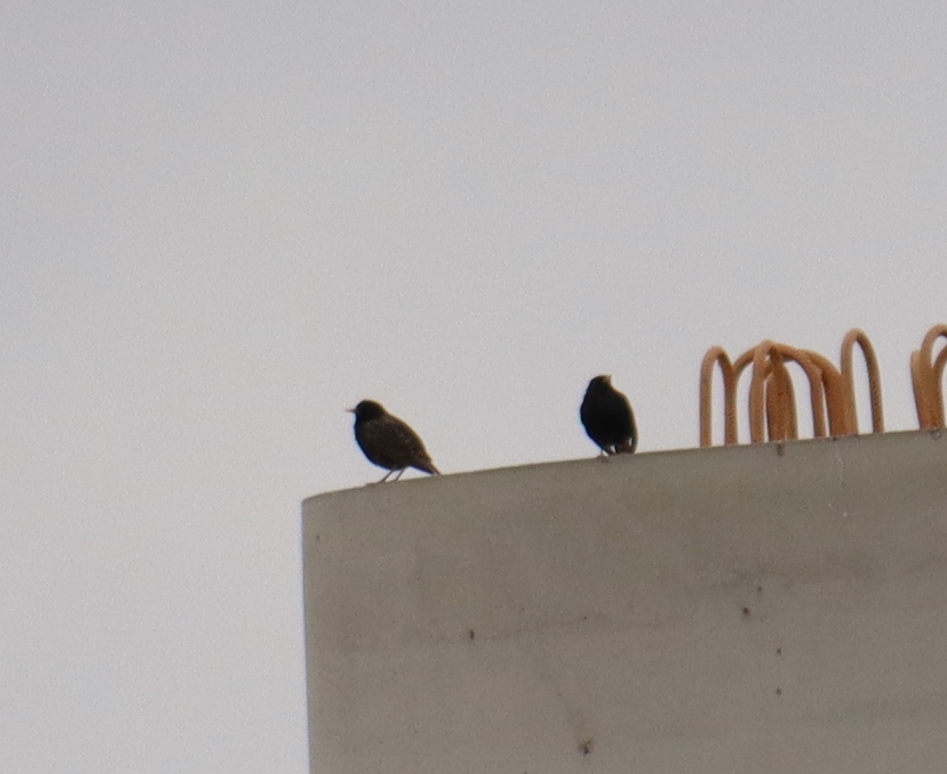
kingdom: Animalia
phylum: Chordata
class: Aves
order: Passeriformes
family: Sturnidae
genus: Sturnus
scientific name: Sturnus vulgaris
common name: Common starling
